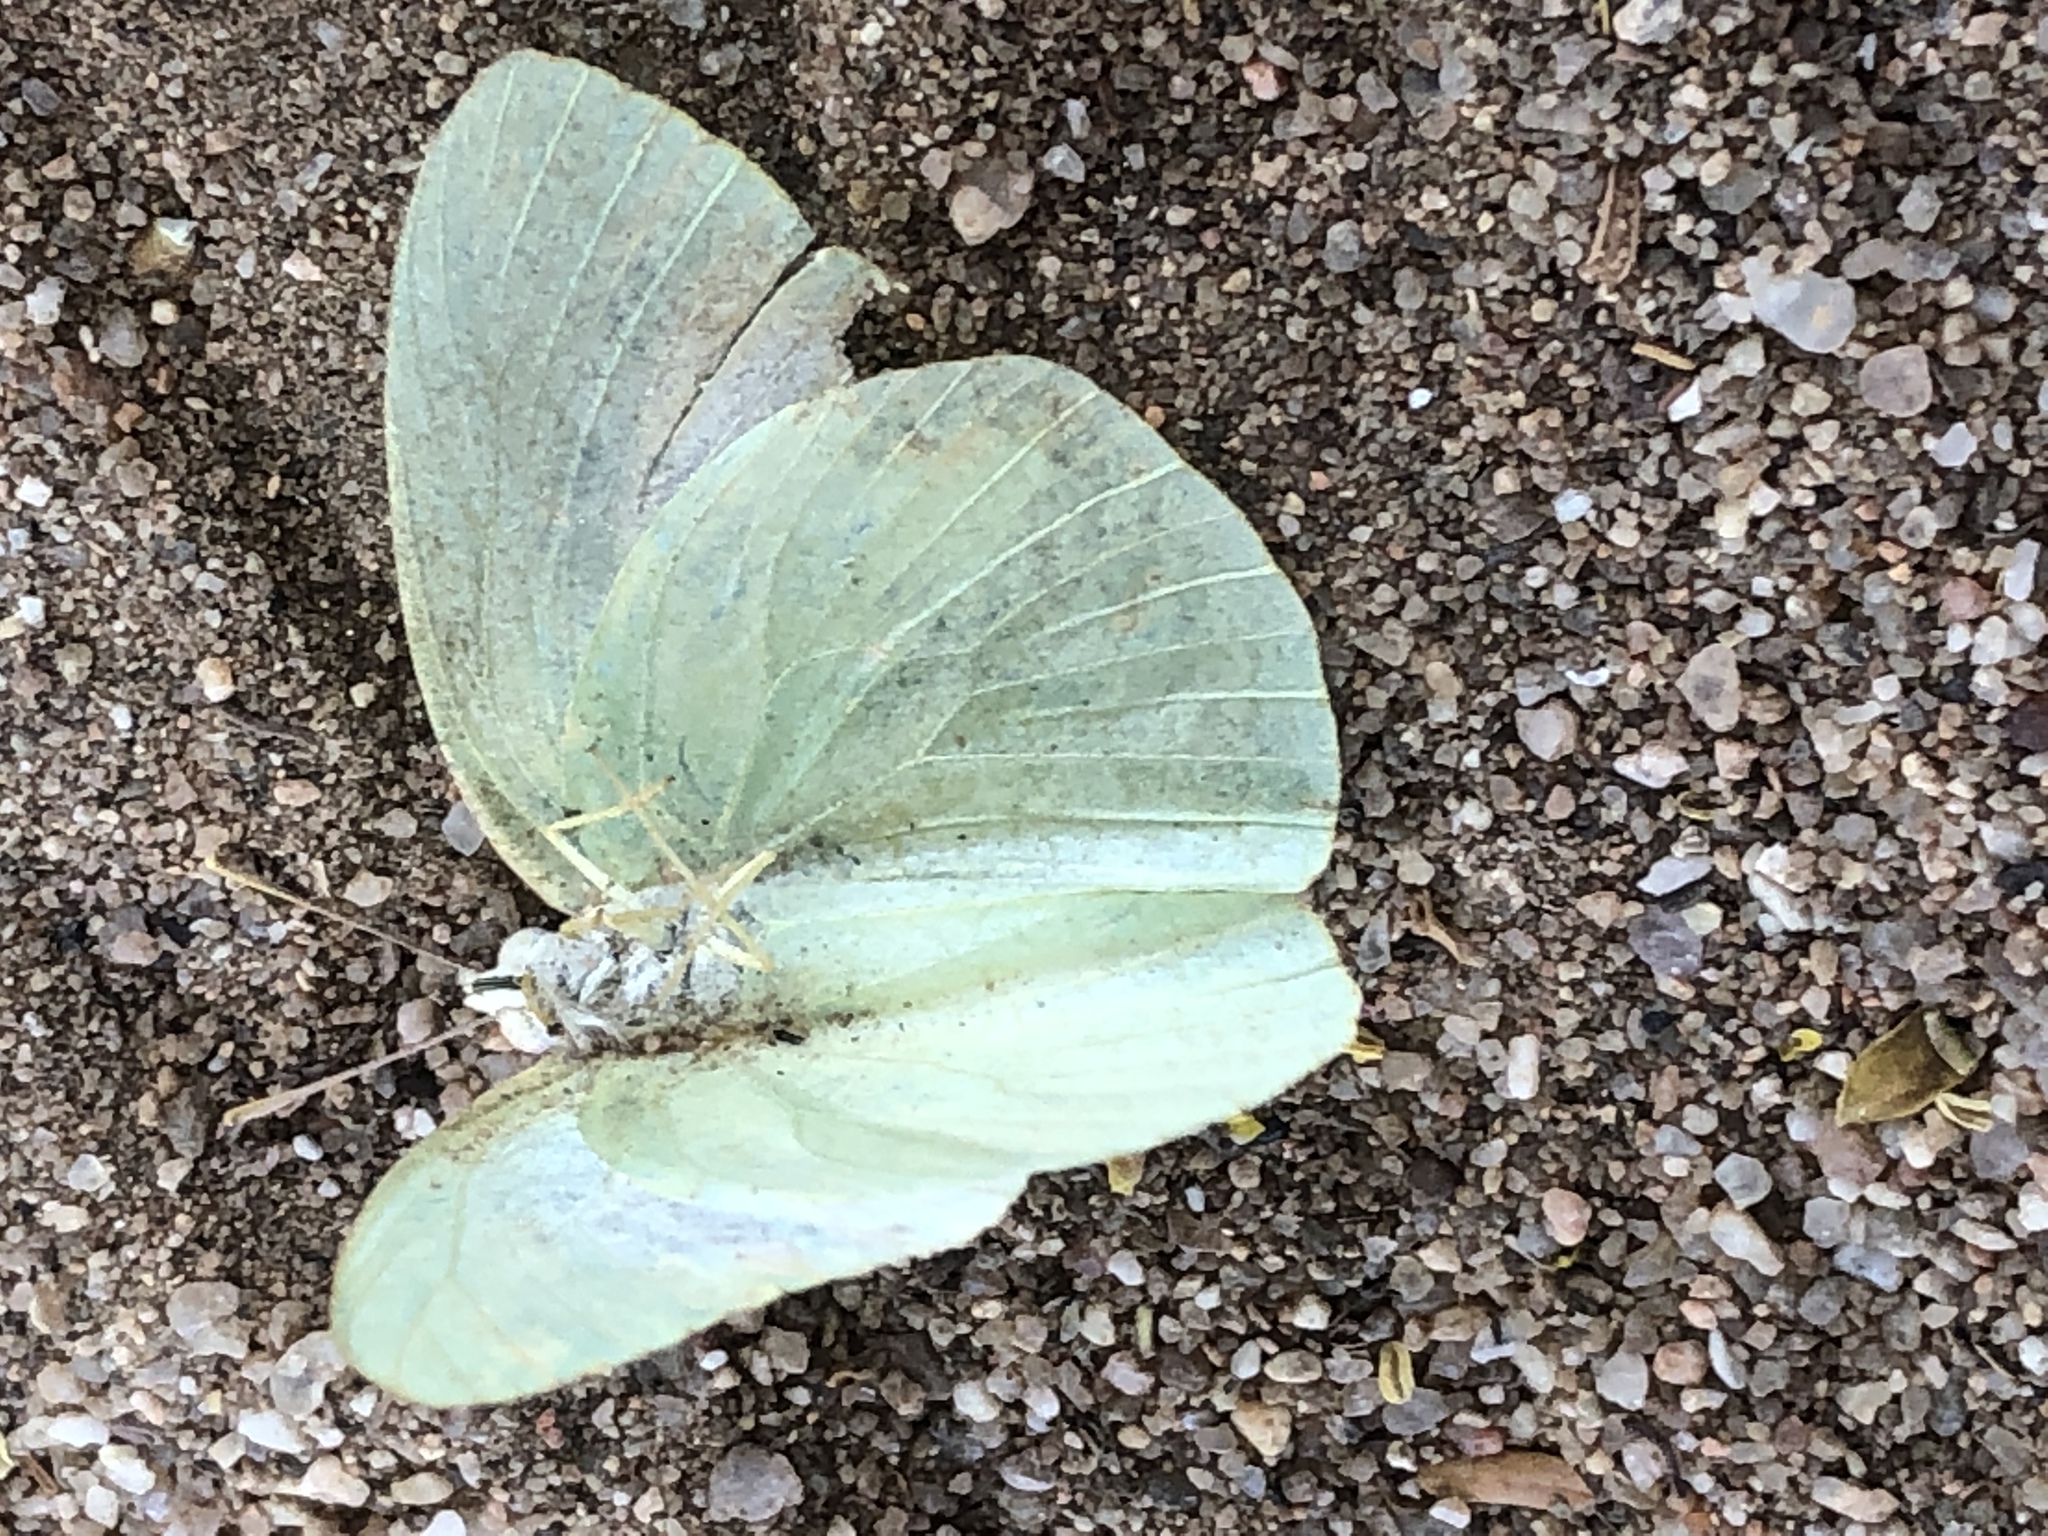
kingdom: Animalia
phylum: Arthropoda
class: Insecta
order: Lepidoptera
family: Pieridae
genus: Catopsilia
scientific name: Catopsilia florella
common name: African migrant
